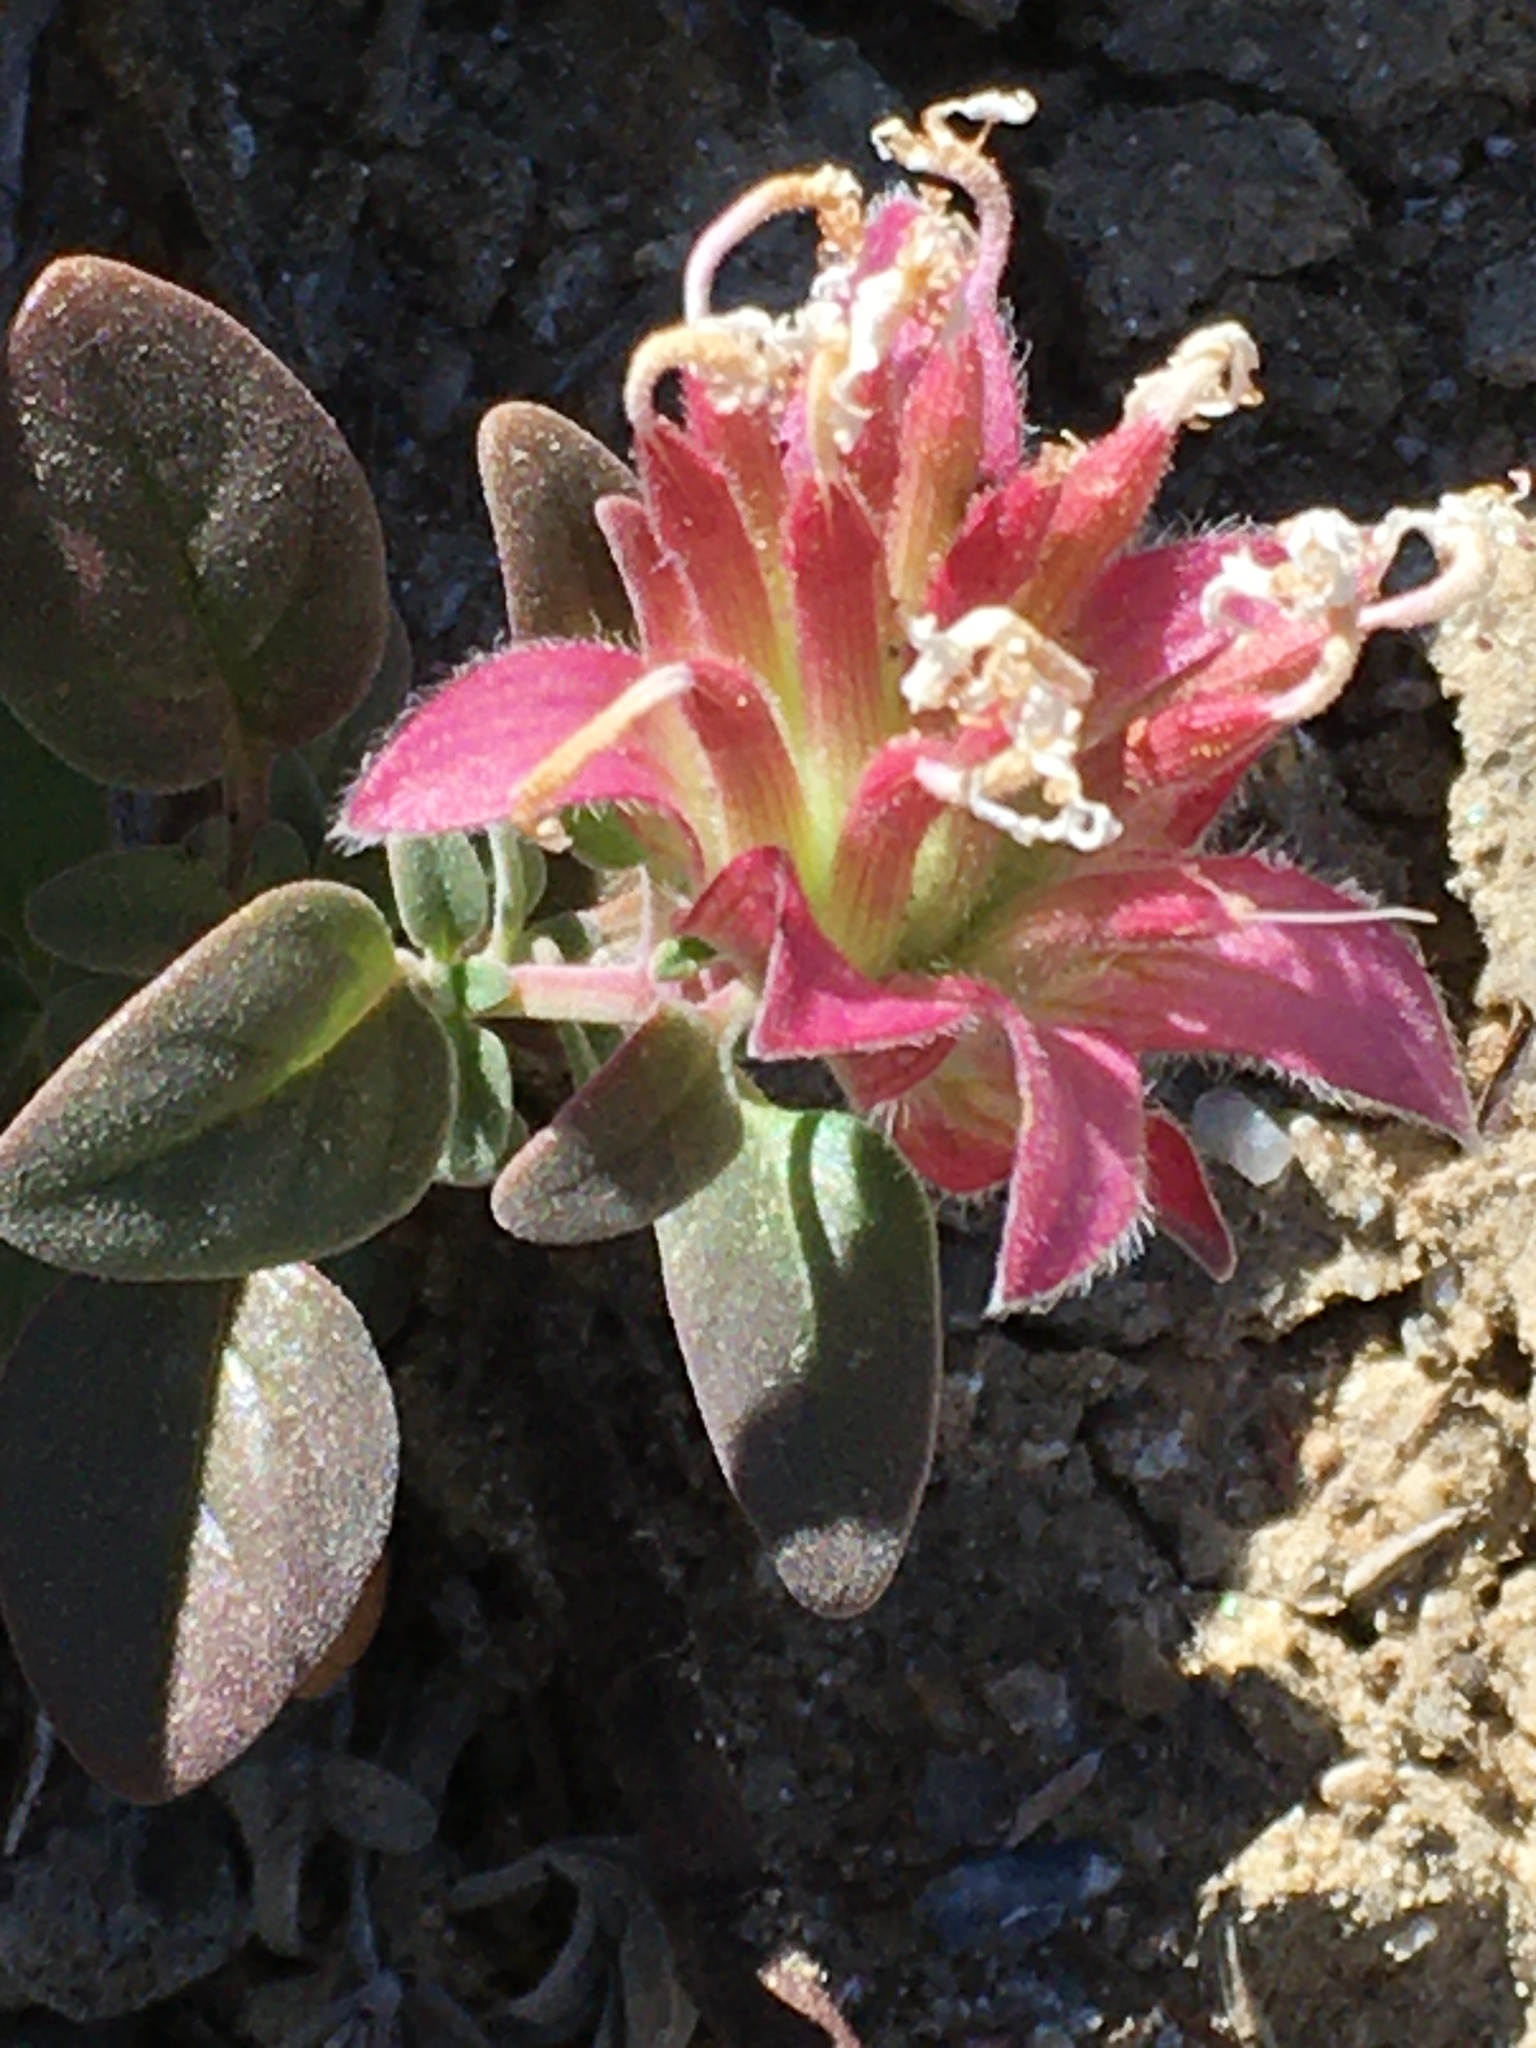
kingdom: Plantae
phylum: Tracheophyta
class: Magnoliopsida
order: Lamiales
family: Lamiaceae
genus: Monardella
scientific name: Monardella nana
